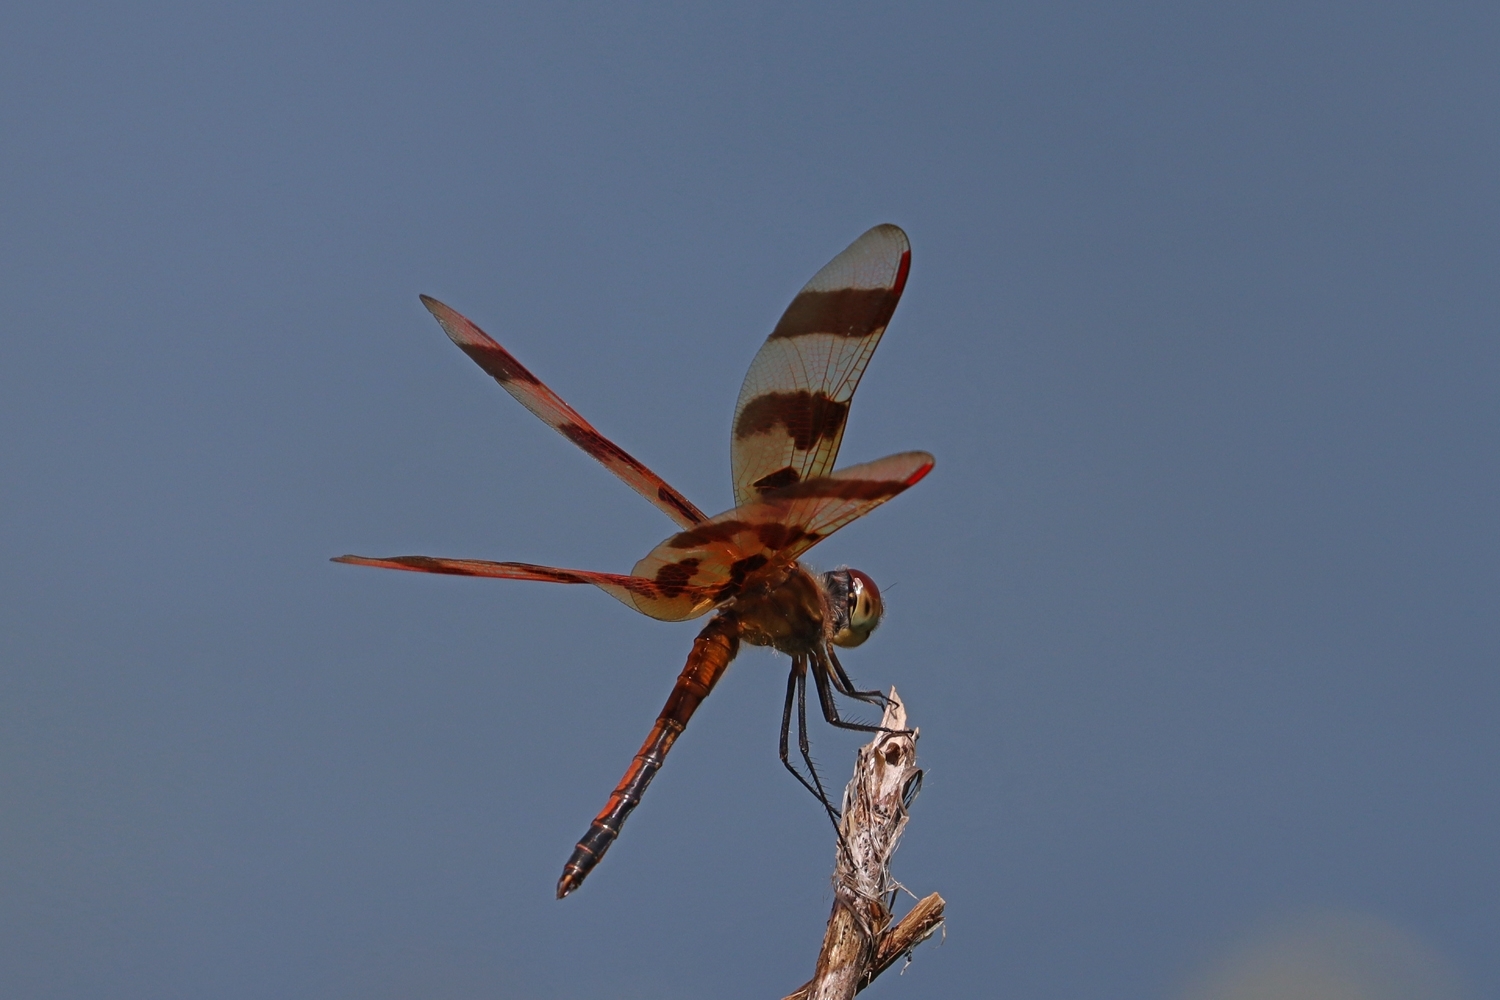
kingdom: Animalia
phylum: Arthropoda
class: Insecta
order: Odonata
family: Libellulidae
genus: Celithemis
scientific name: Celithemis eponina
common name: Halloween pennant
